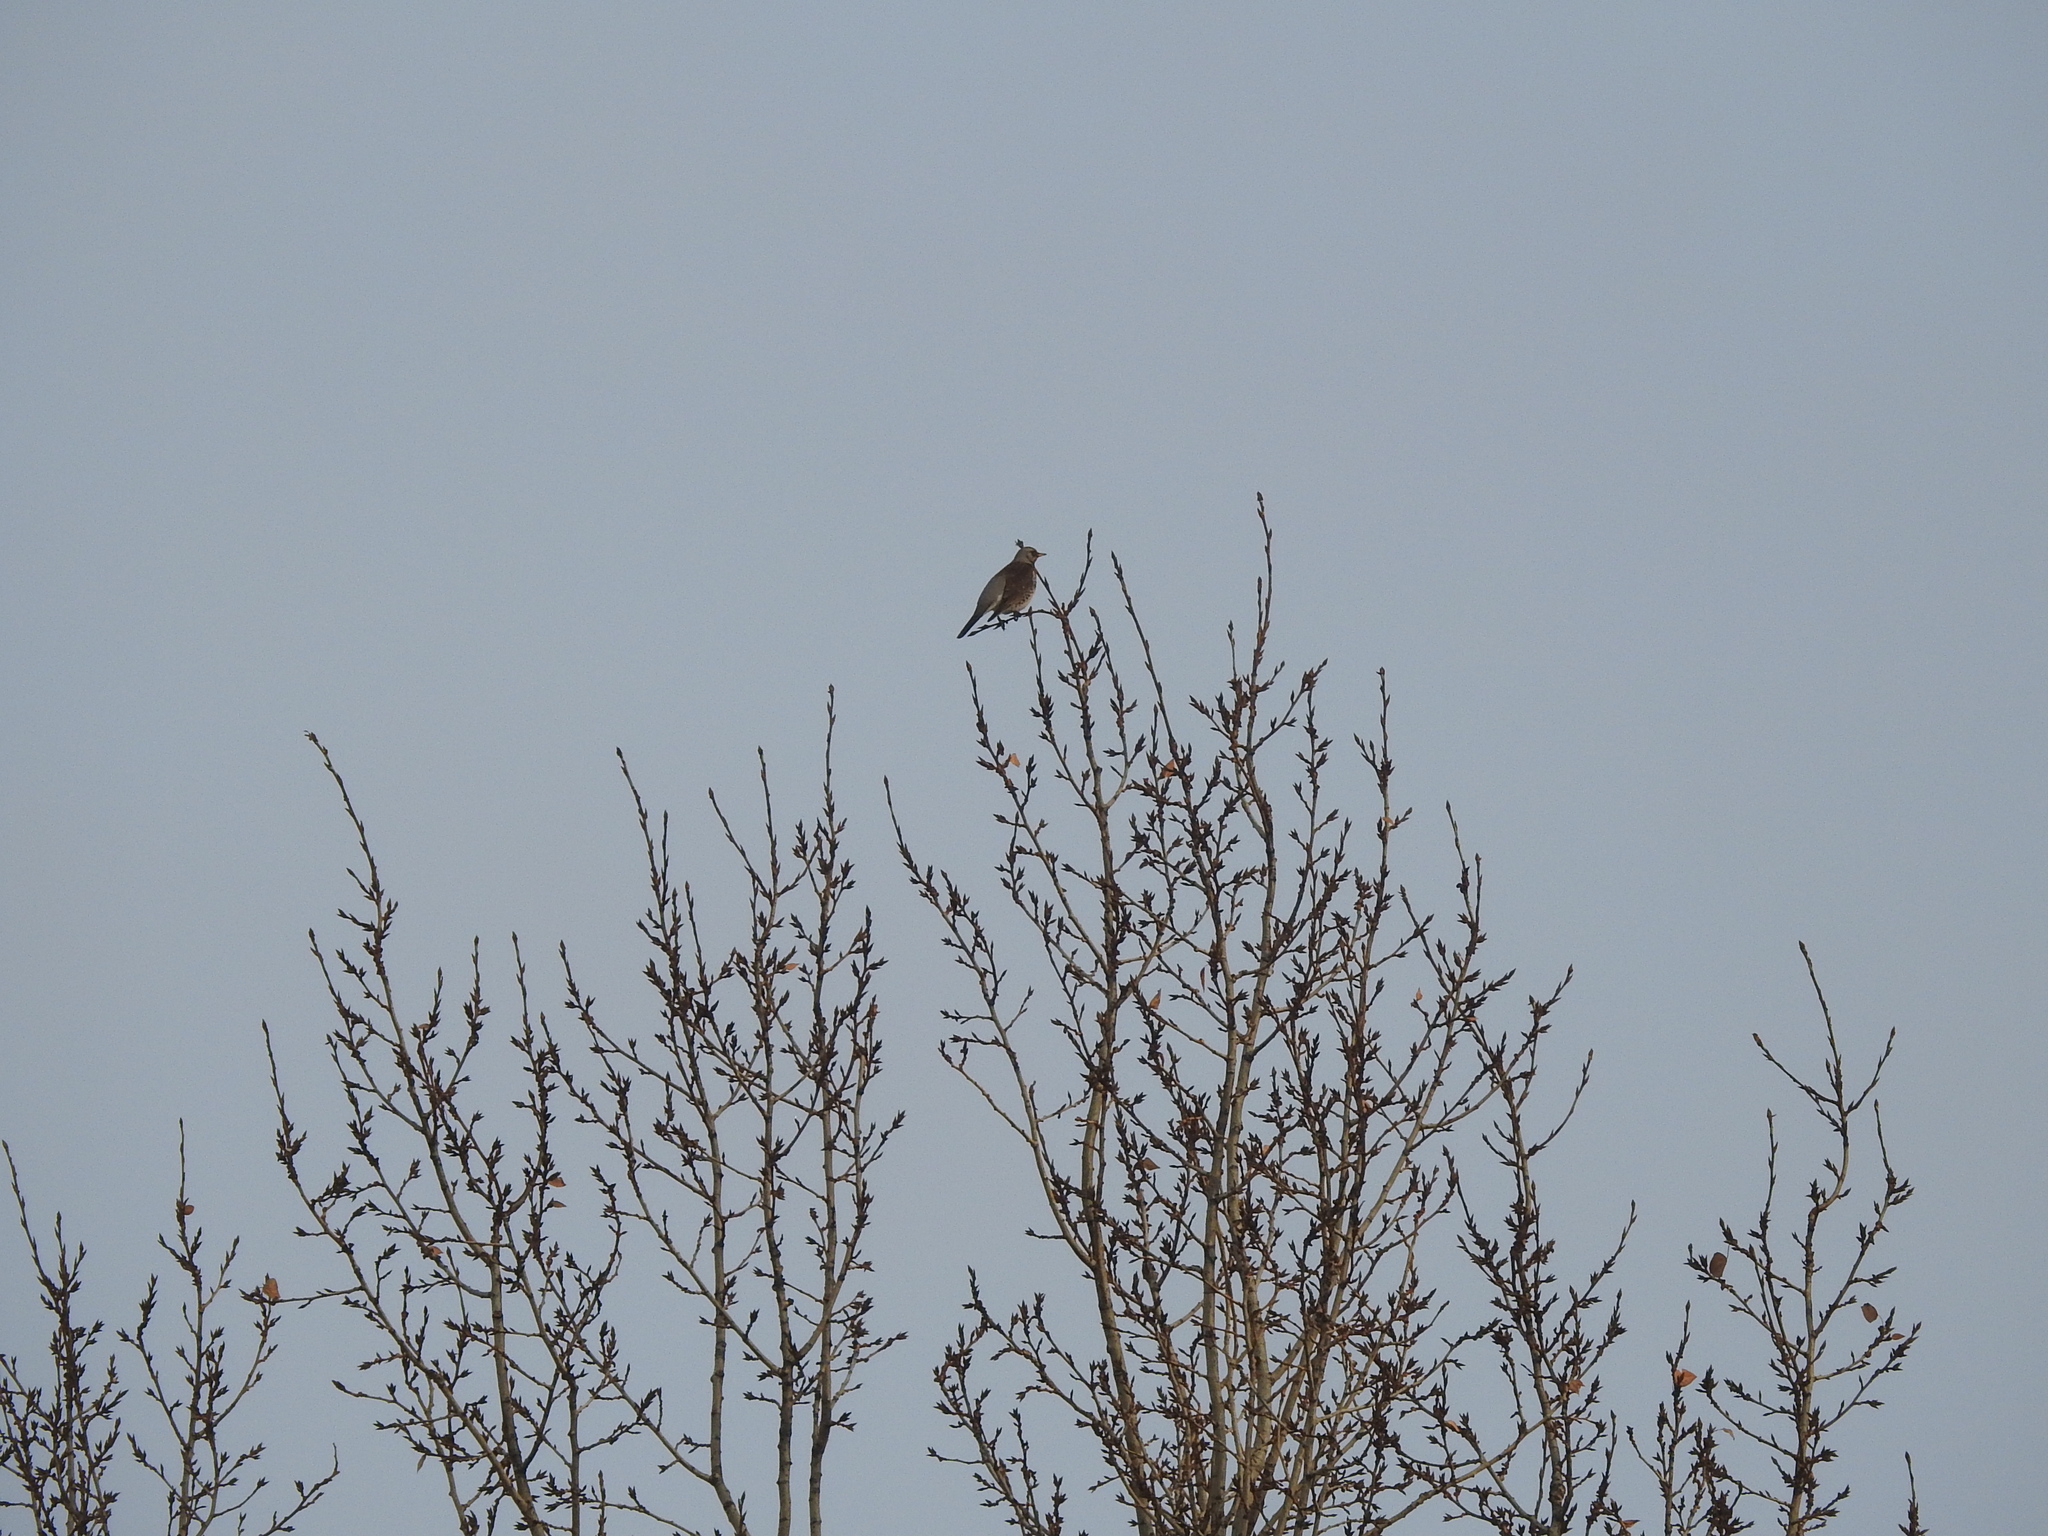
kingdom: Animalia
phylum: Chordata
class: Aves
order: Passeriformes
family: Turdidae
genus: Turdus
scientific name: Turdus pilaris
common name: Fieldfare
